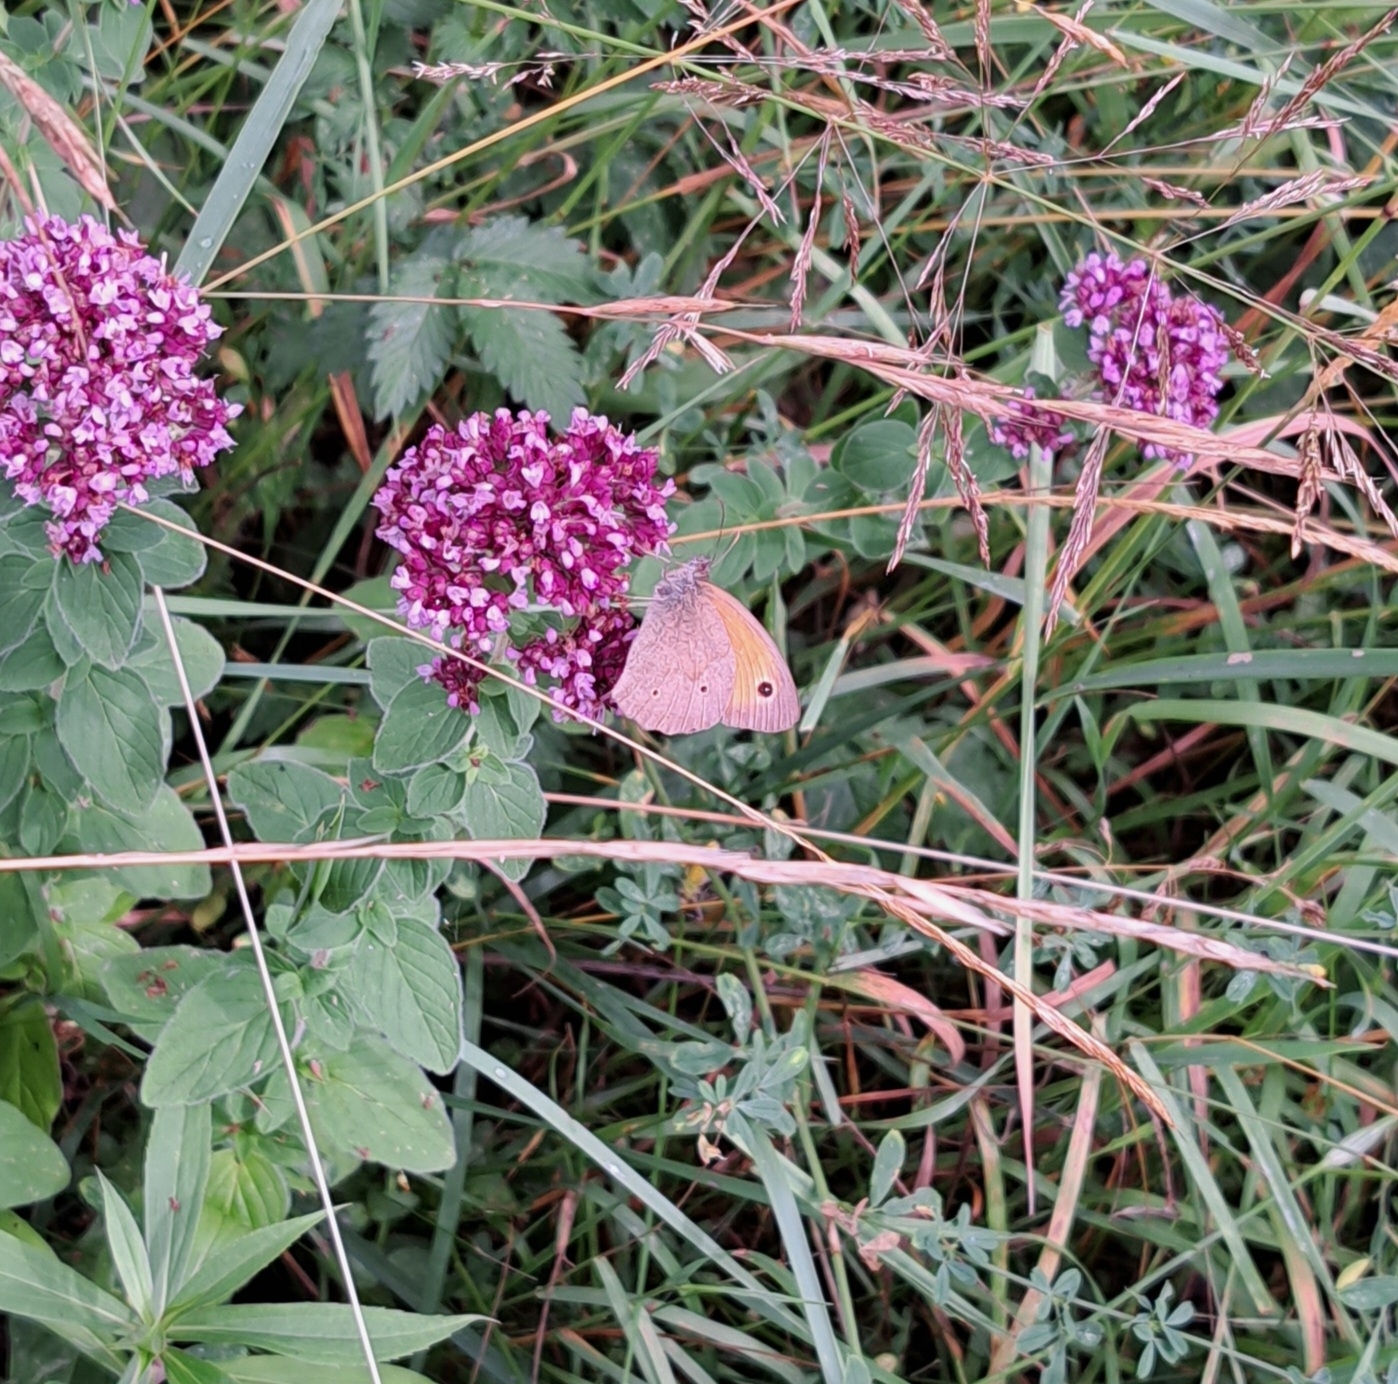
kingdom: Animalia
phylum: Arthropoda
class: Insecta
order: Lepidoptera
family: Nymphalidae
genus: Maniola
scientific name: Maniola jurtina
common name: Meadow brown
